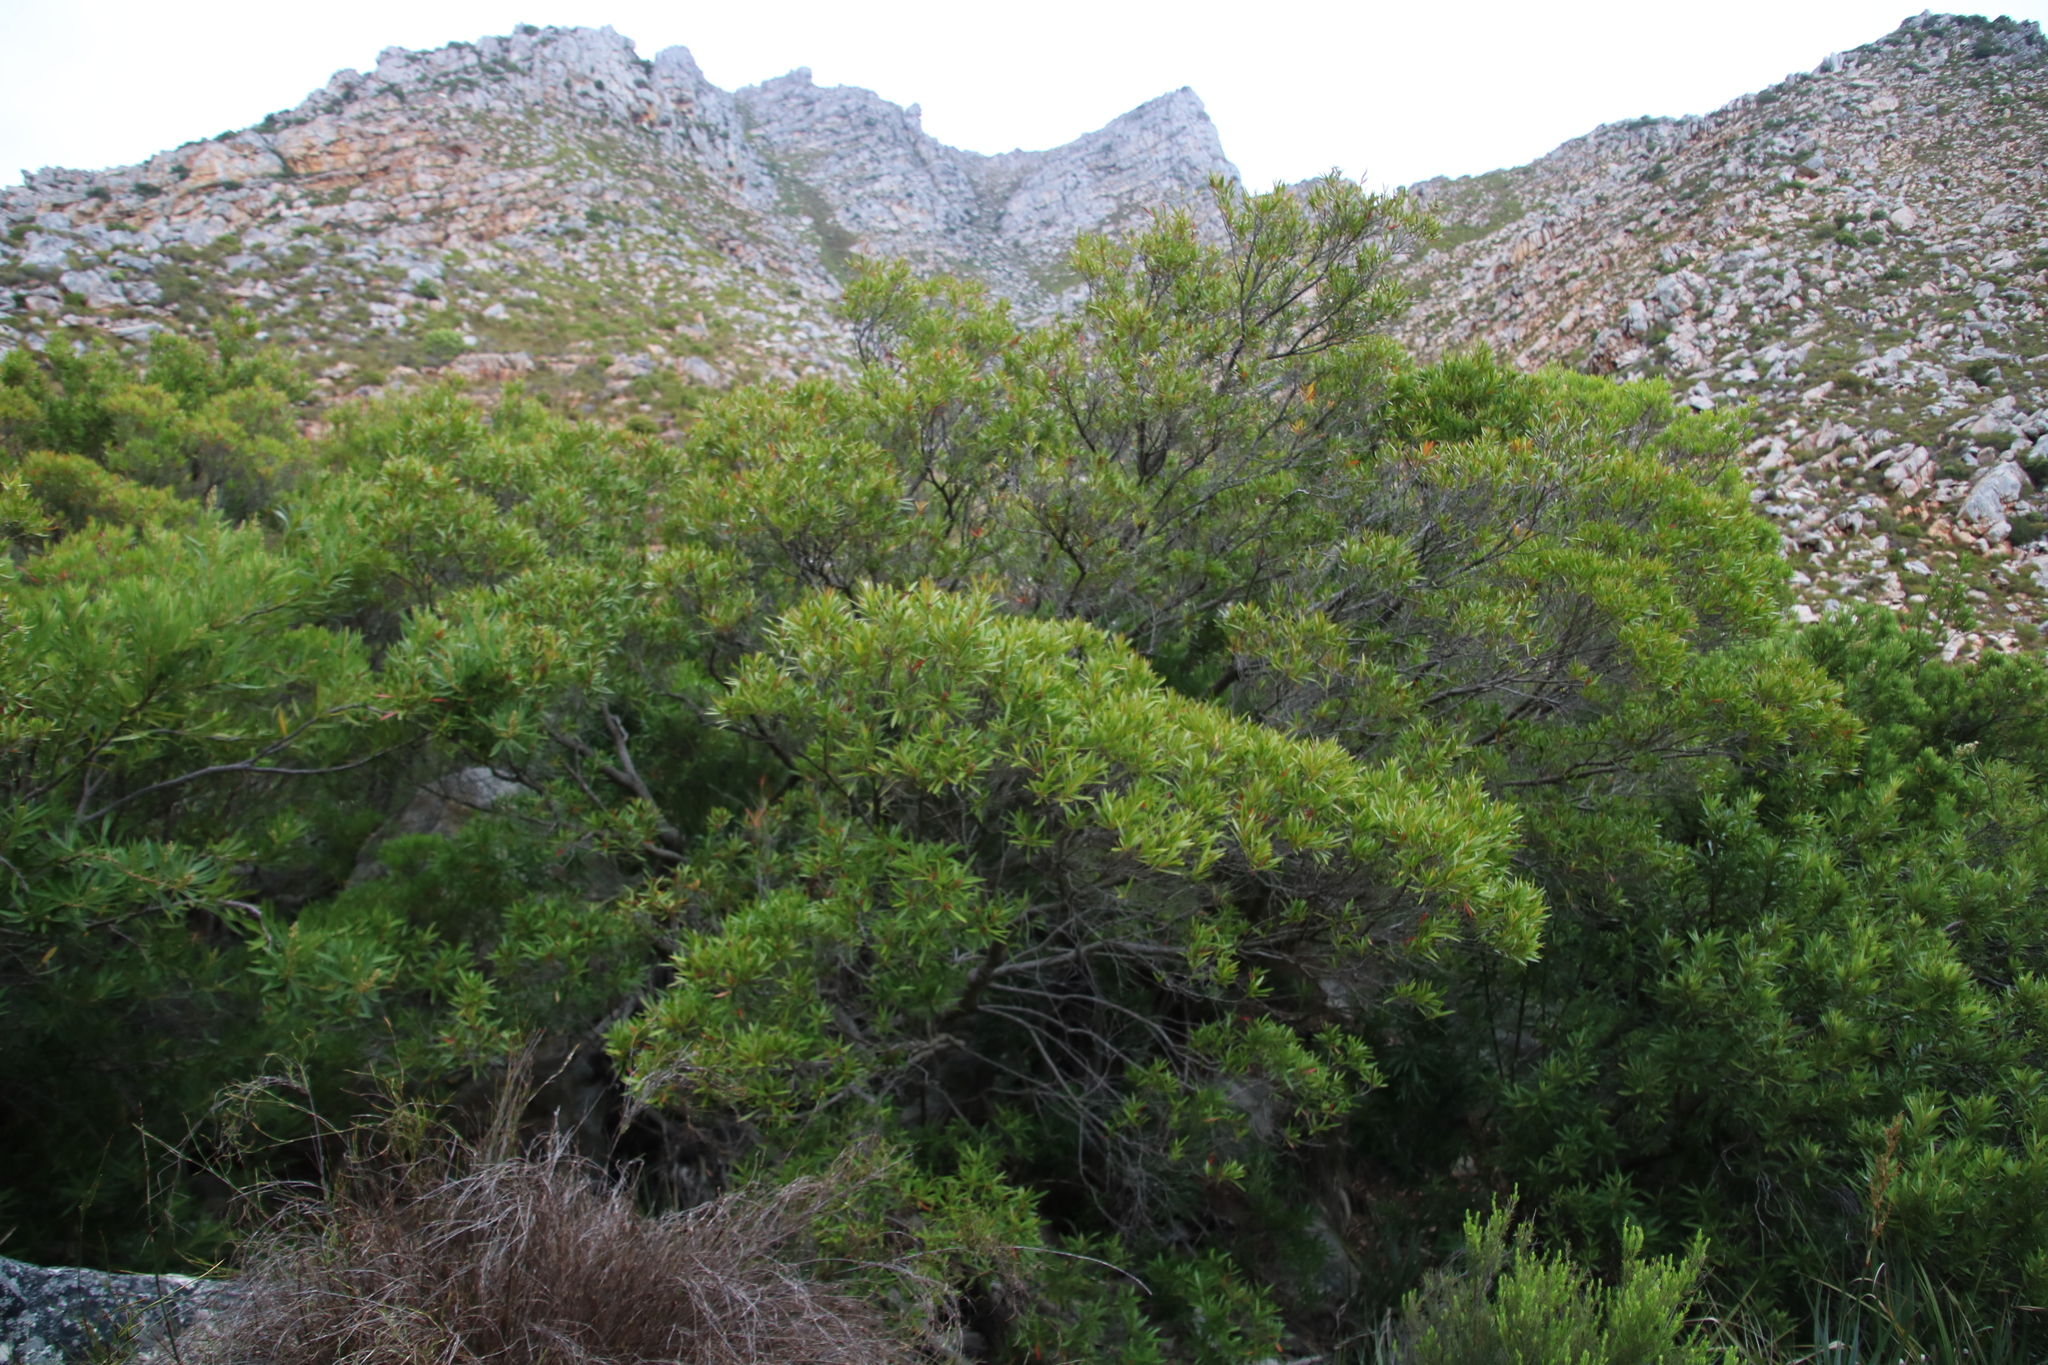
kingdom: Plantae
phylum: Tracheophyta
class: Magnoliopsida
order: Asterales
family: Asteraceae
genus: Brachylaena
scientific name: Brachylaena neriifolia
